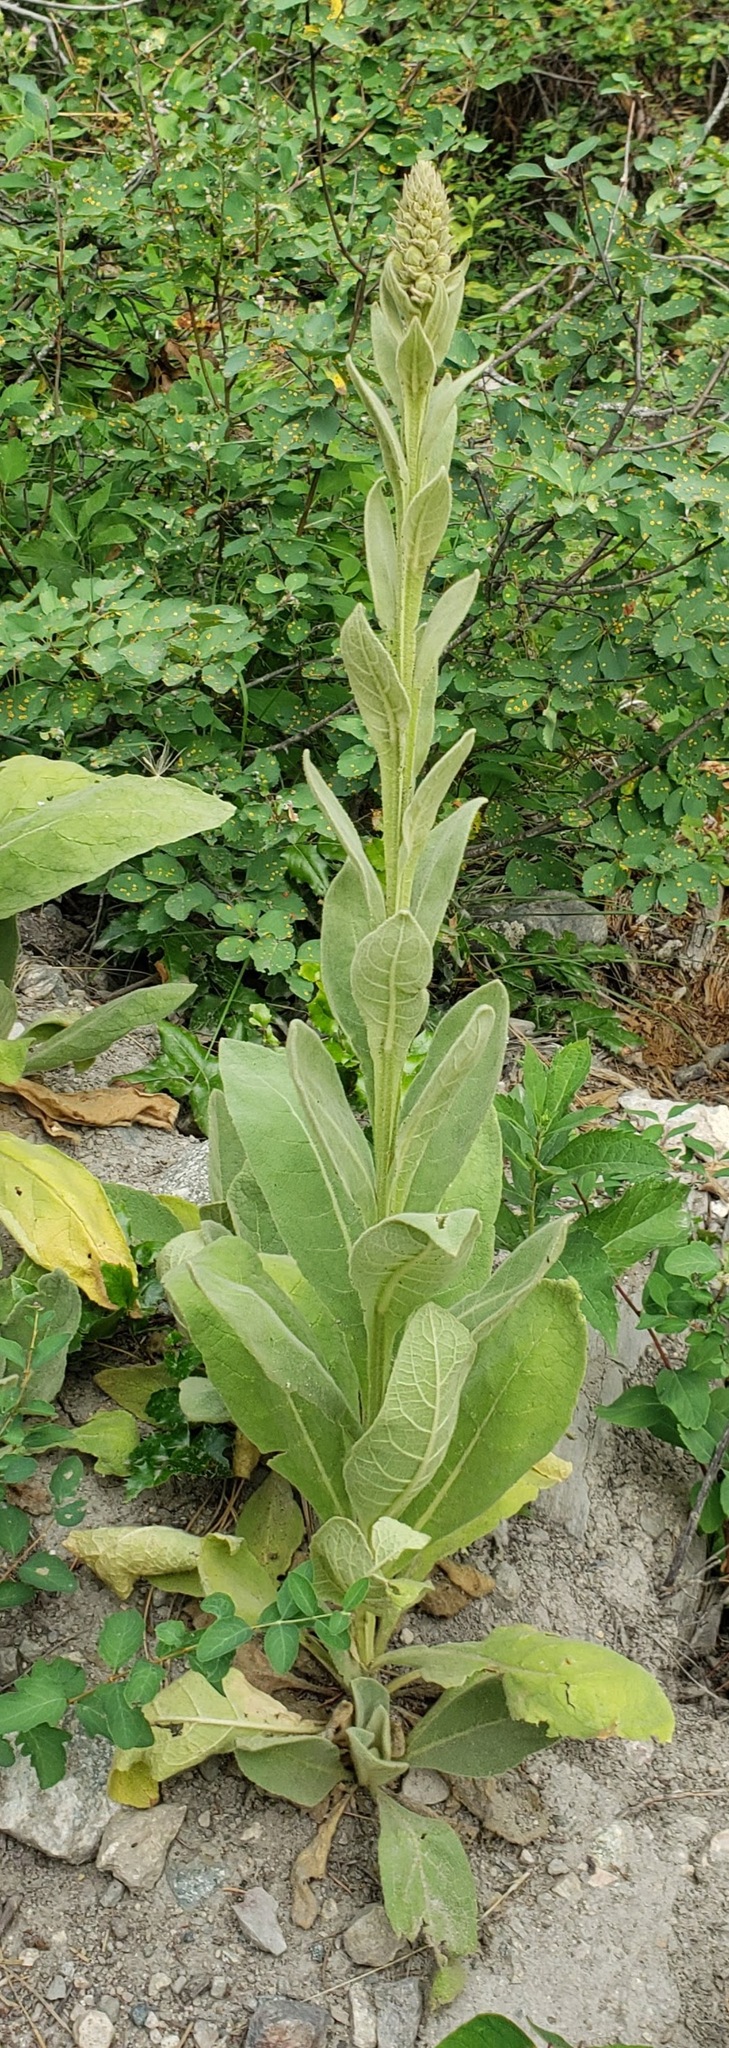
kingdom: Plantae
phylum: Tracheophyta
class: Magnoliopsida
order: Lamiales
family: Scrophulariaceae
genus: Verbascum
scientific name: Verbascum thapsus
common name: Common mullein
